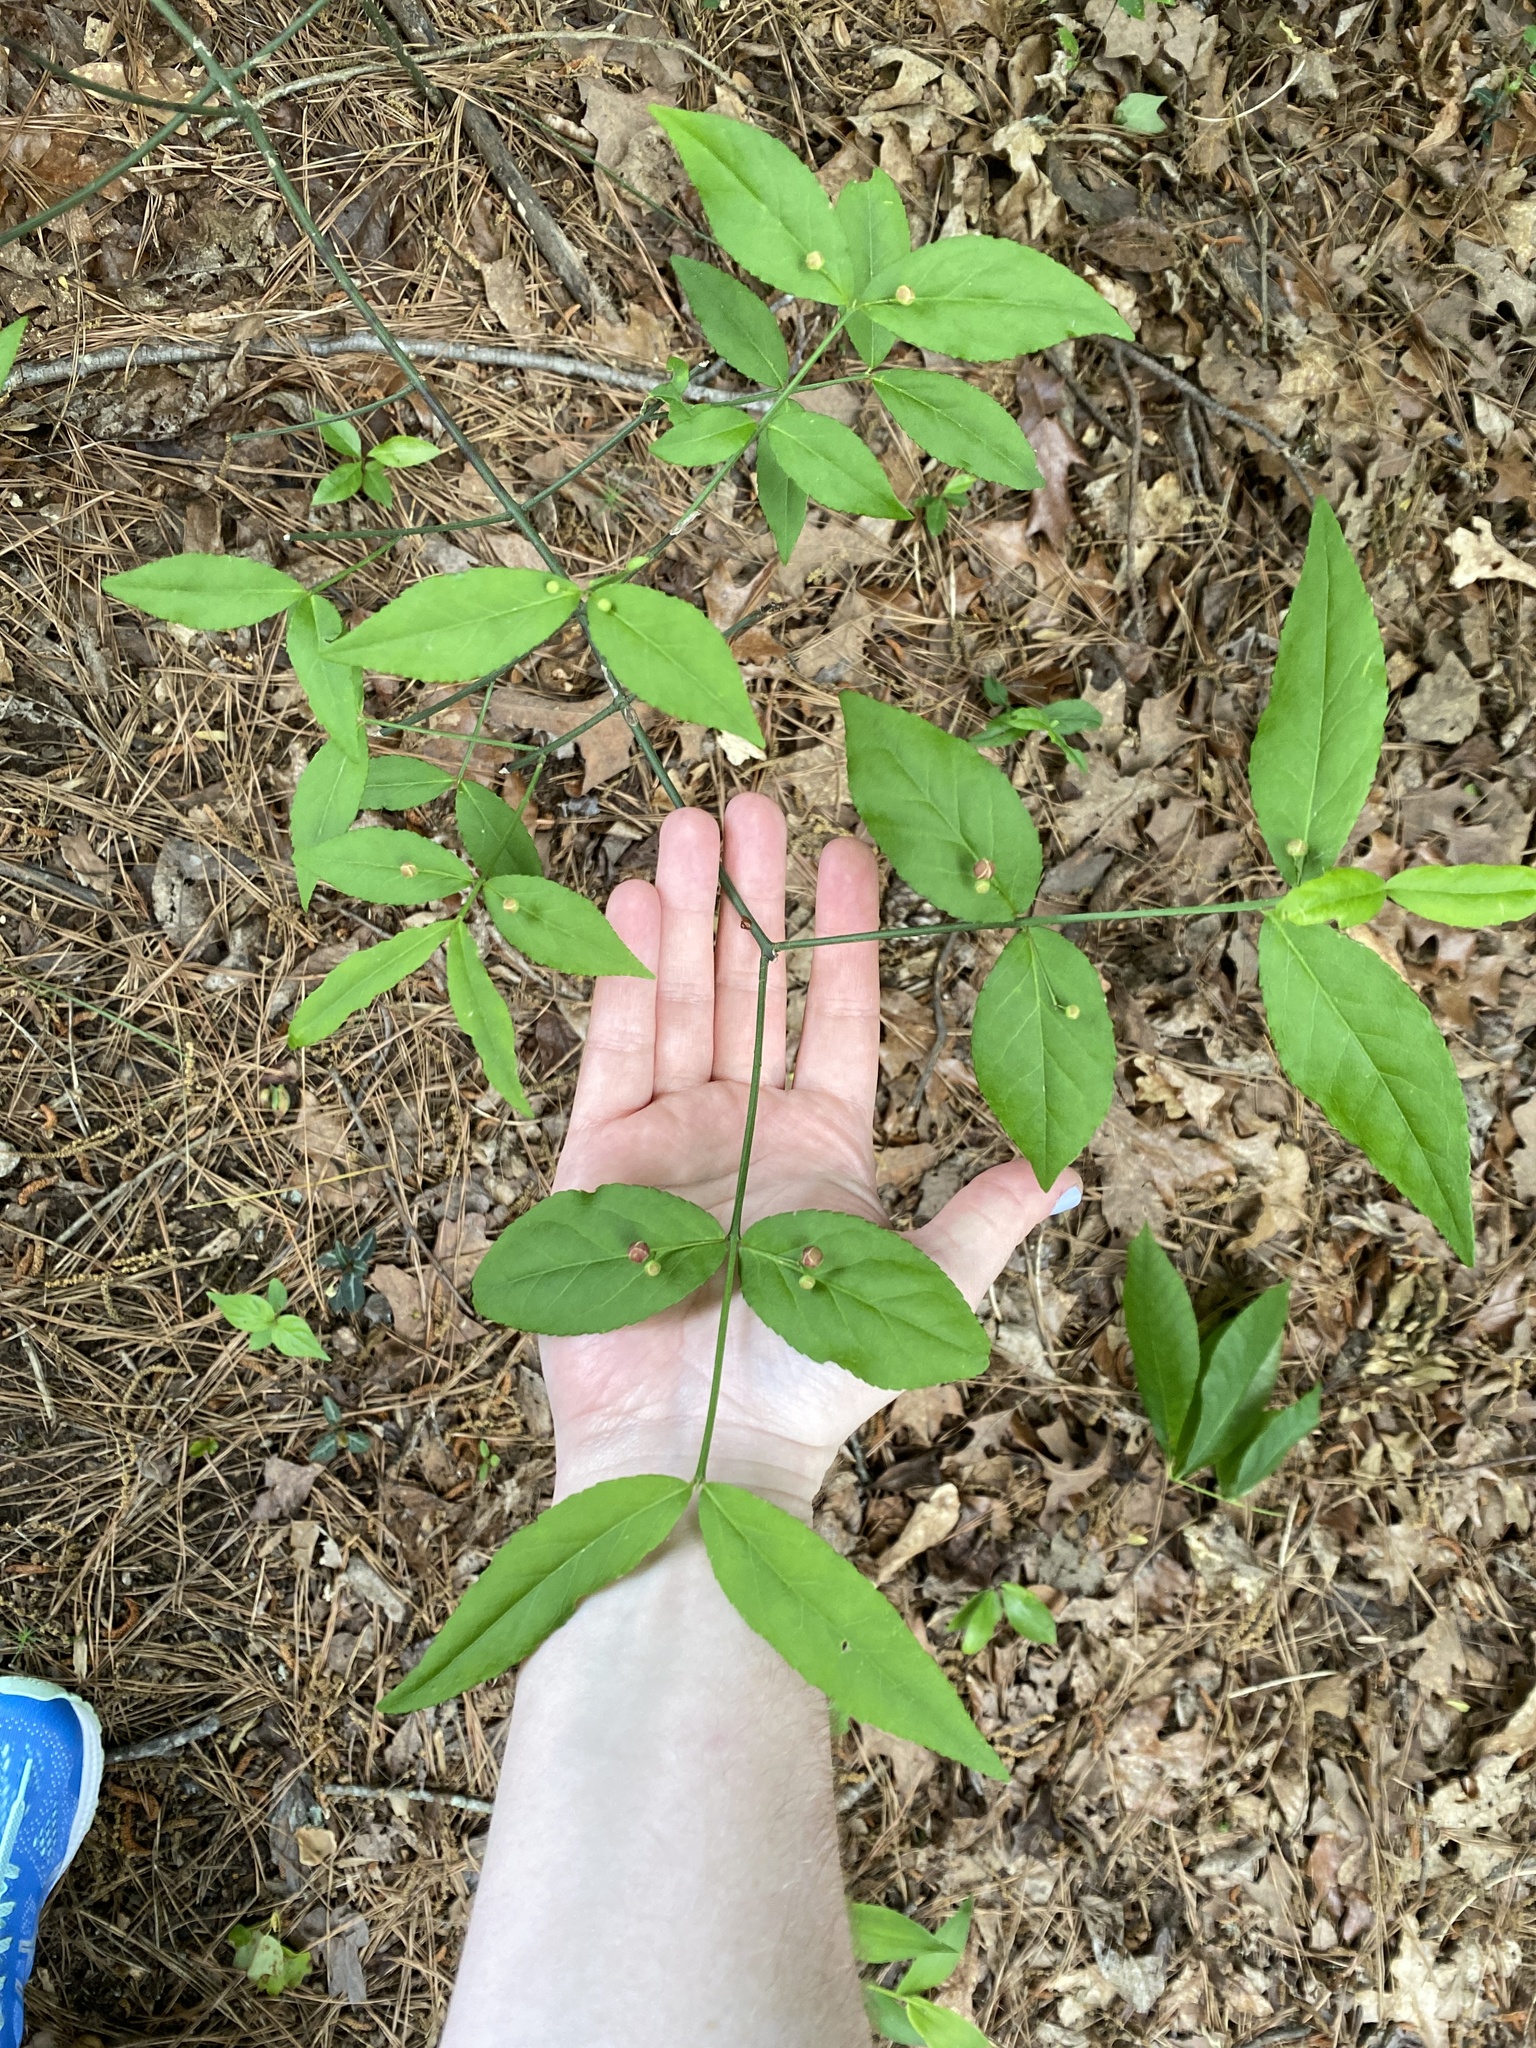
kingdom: Plantae
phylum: Tracheophyta
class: Magnoliopsida
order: Celastrales
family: Celastraceae
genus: Euonymus
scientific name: Euonymus americanus
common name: Bursting-heart
